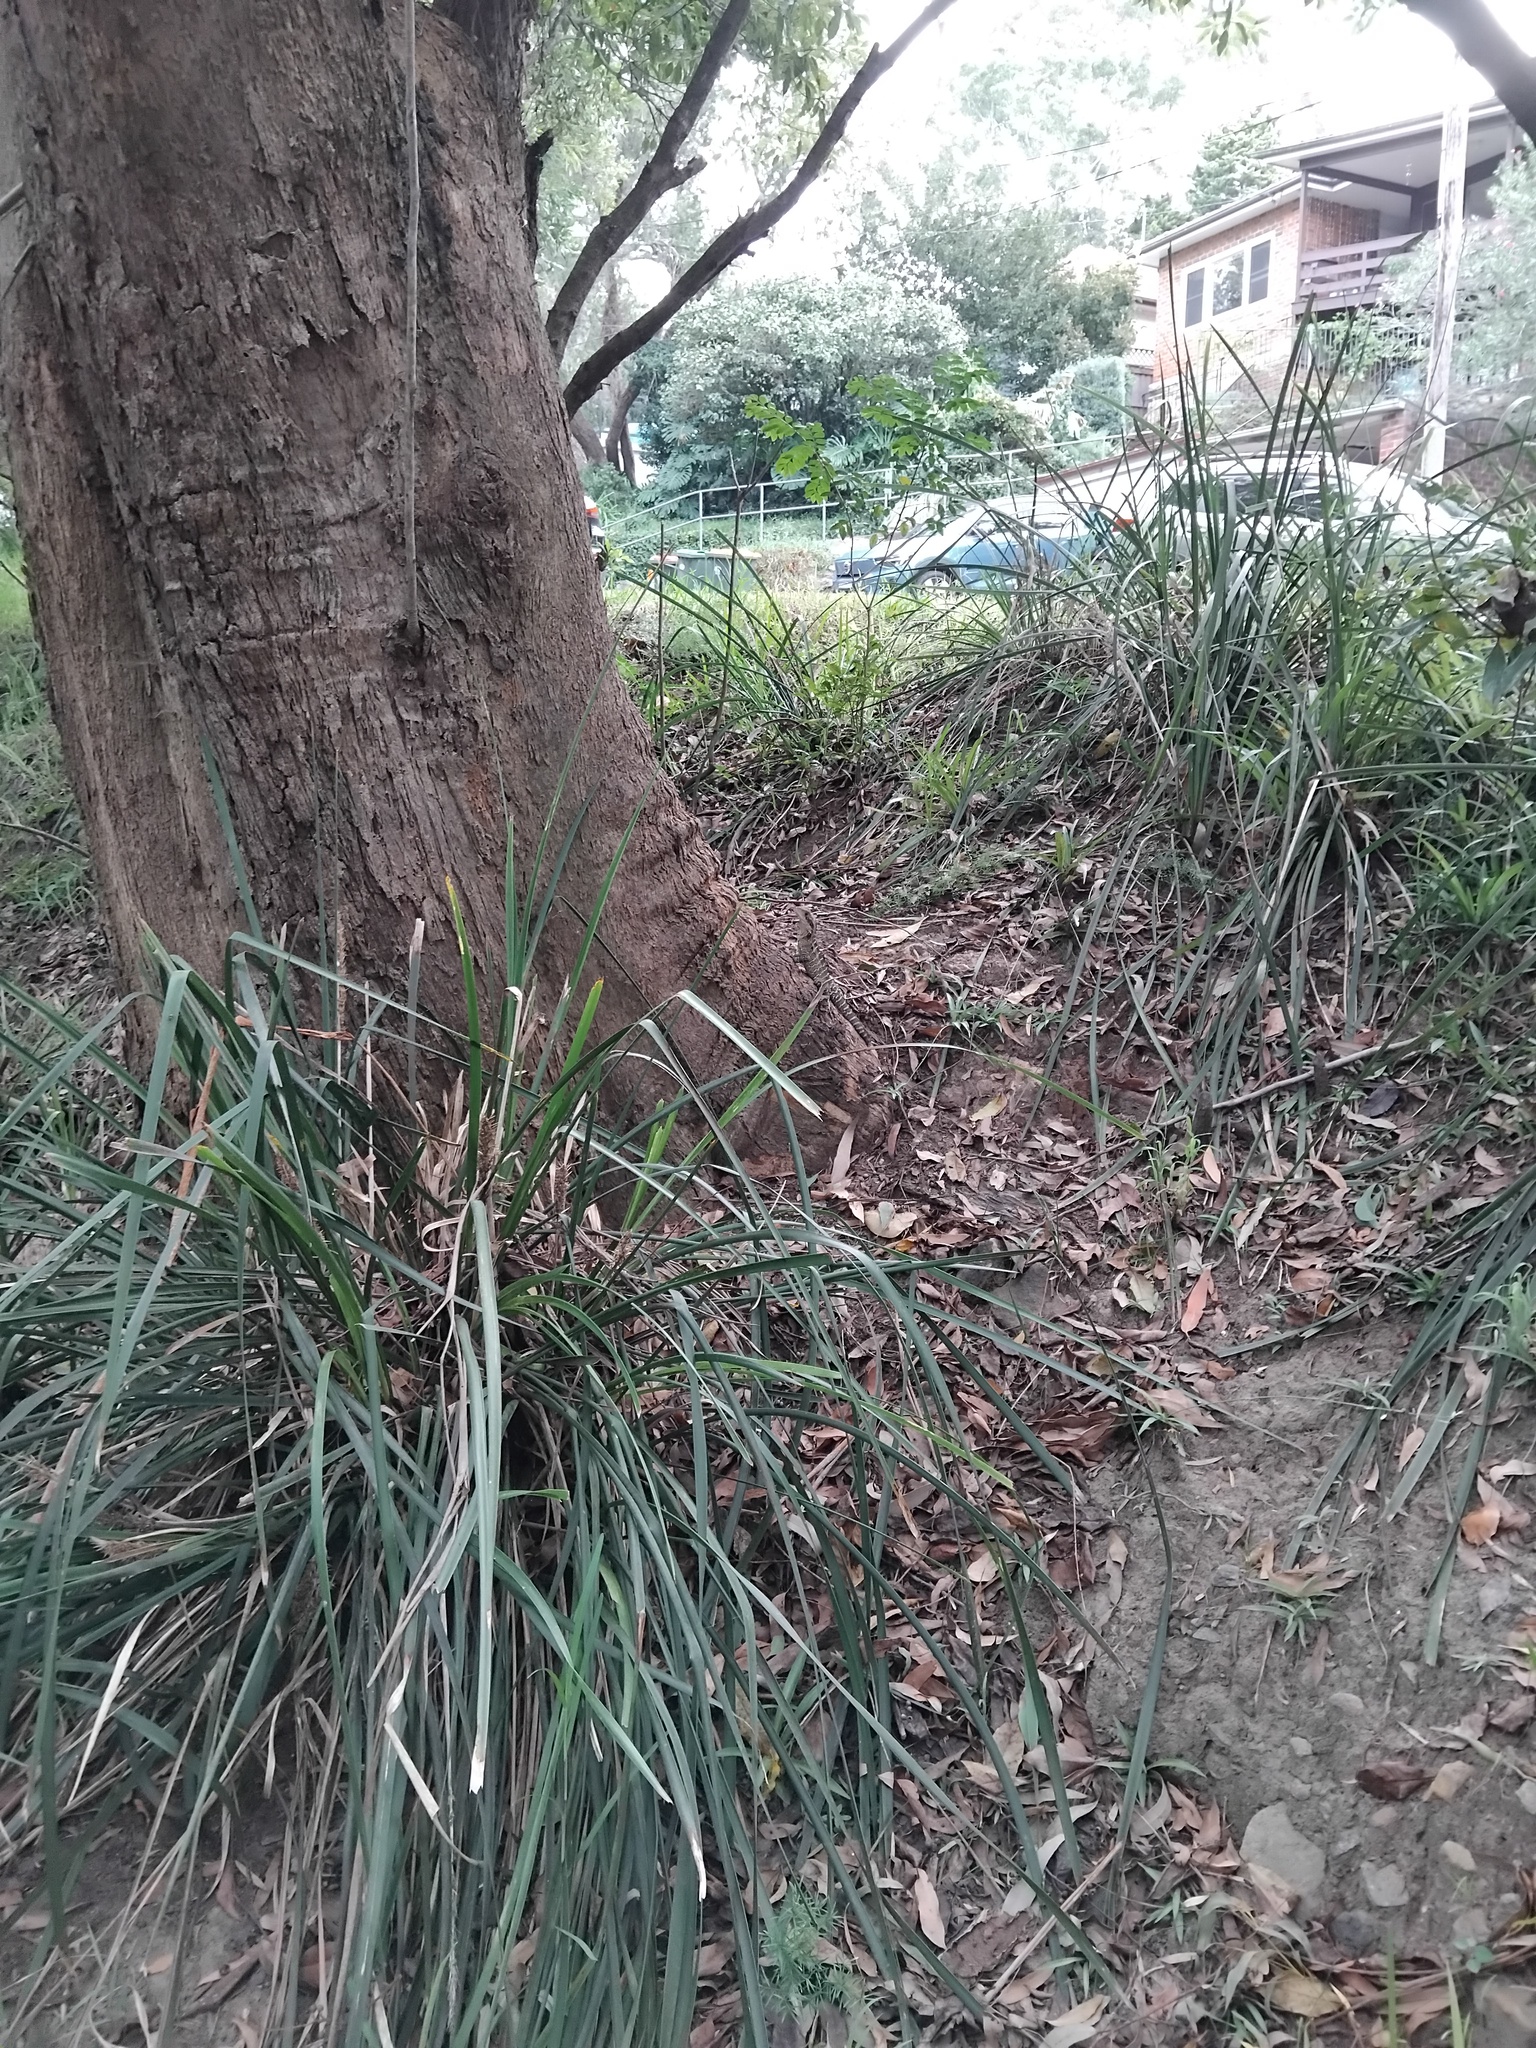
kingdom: Animalia
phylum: Chordata
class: Squamata
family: Agamidae
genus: Intellagama
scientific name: Intellagama lesueurii
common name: Eastern water dragon
